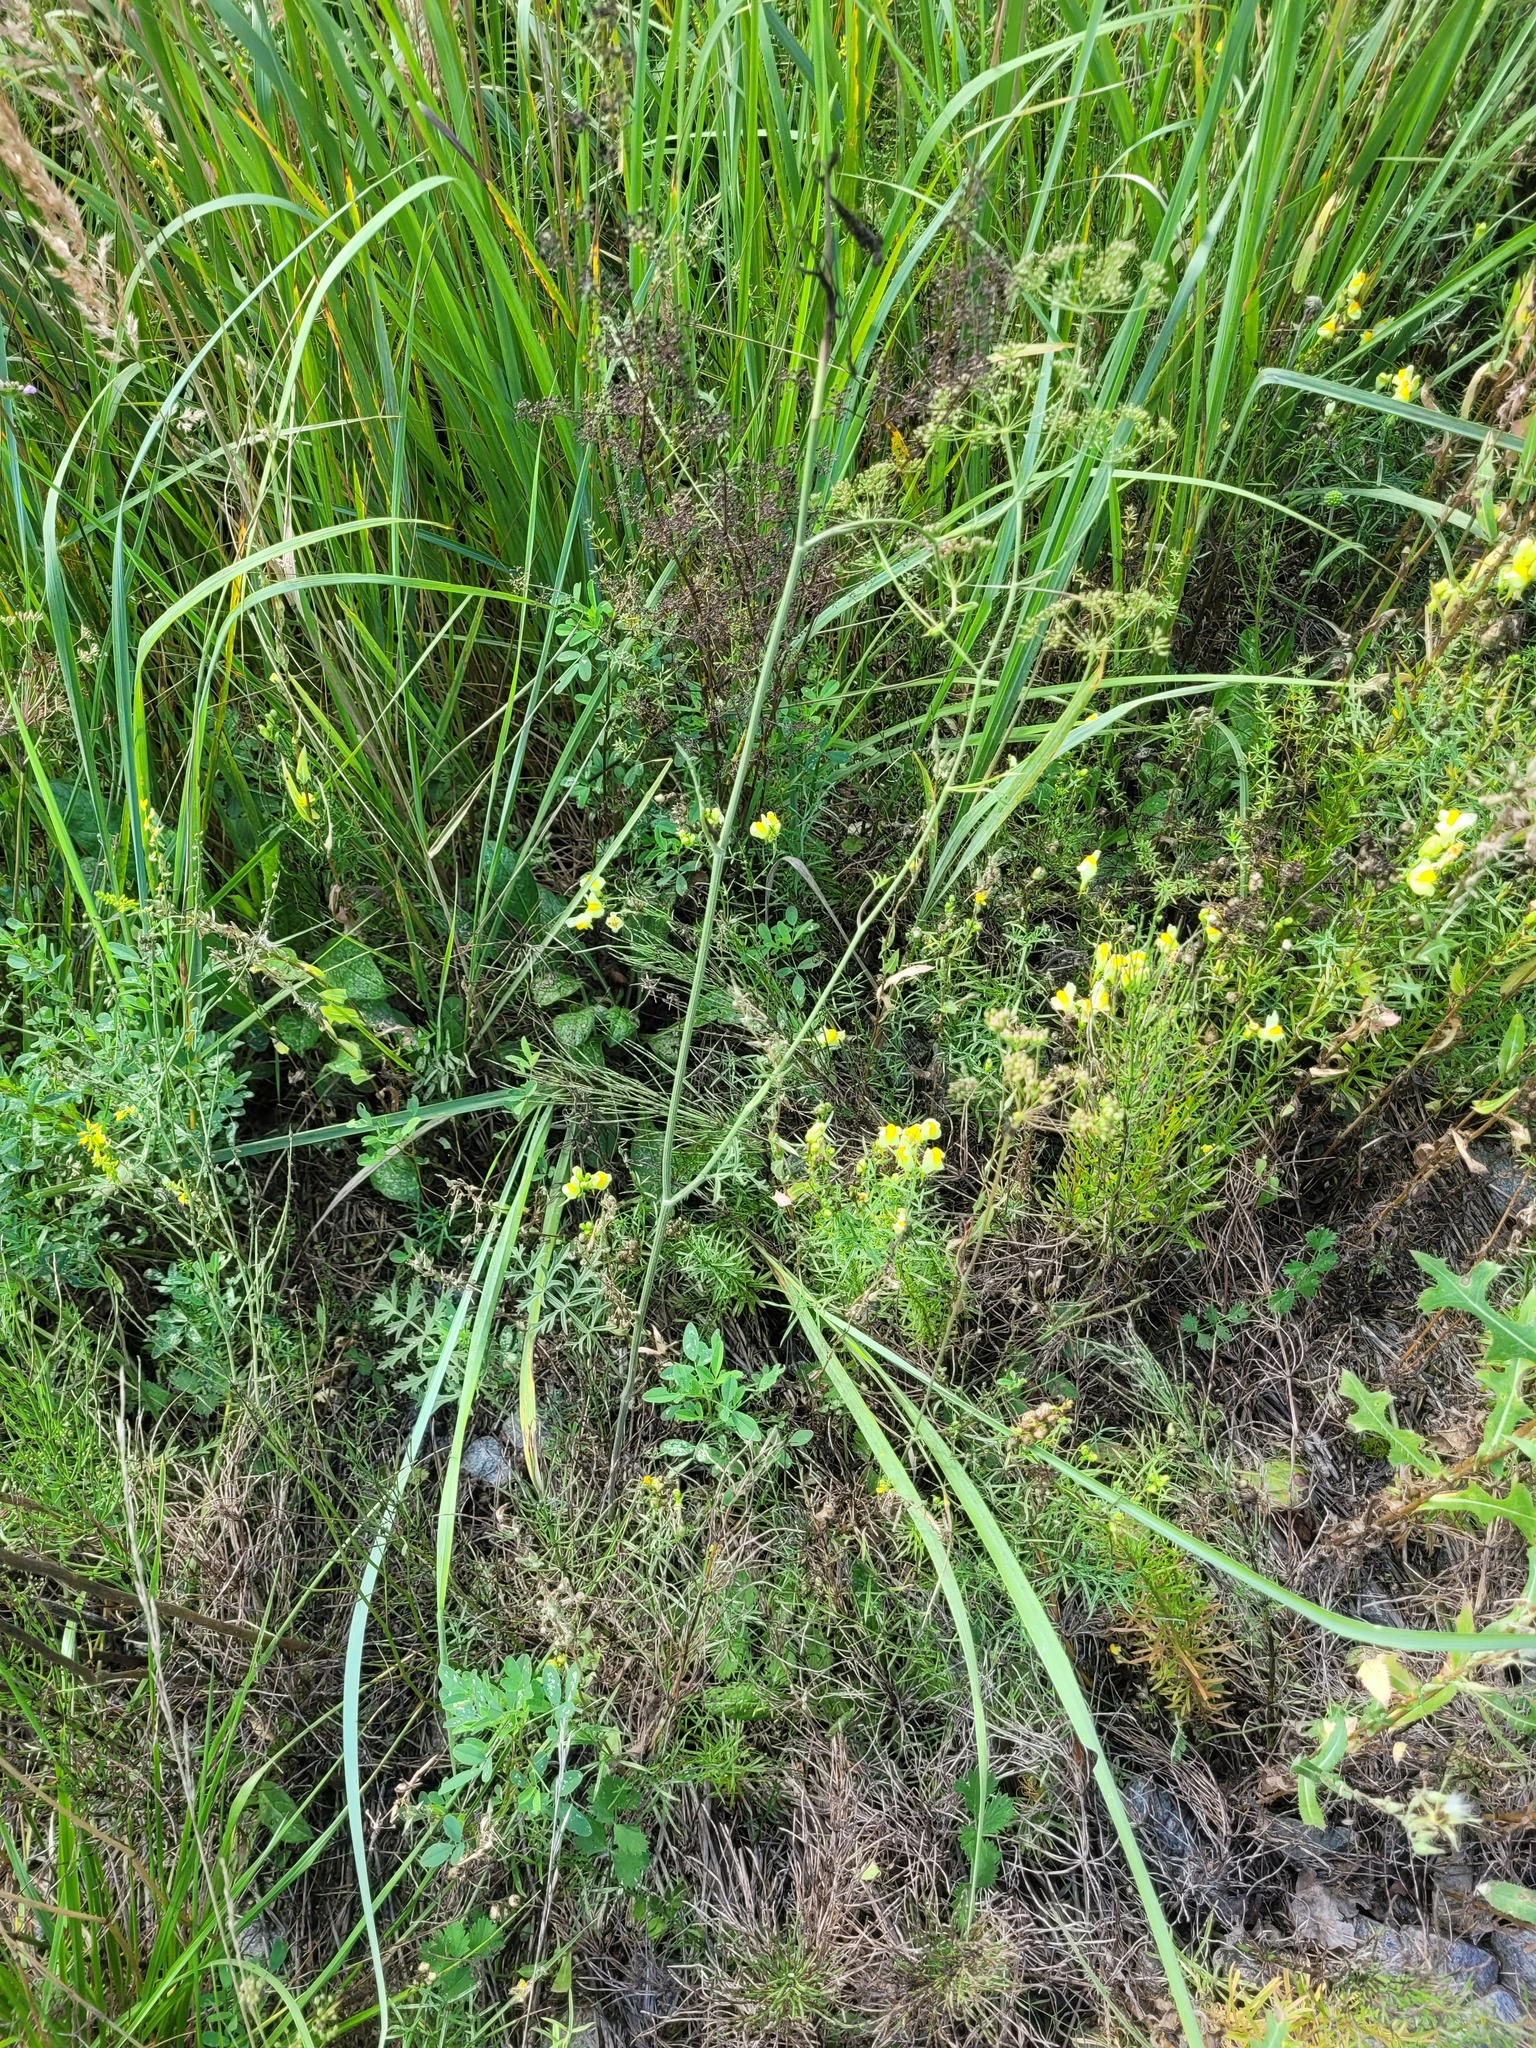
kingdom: Plantae
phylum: Tracheophyta
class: Magnoliopsida
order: Apiales
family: Apiaceae
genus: Pimpinella
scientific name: Pimpinella saxifraga
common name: Burnet-saxifrage
